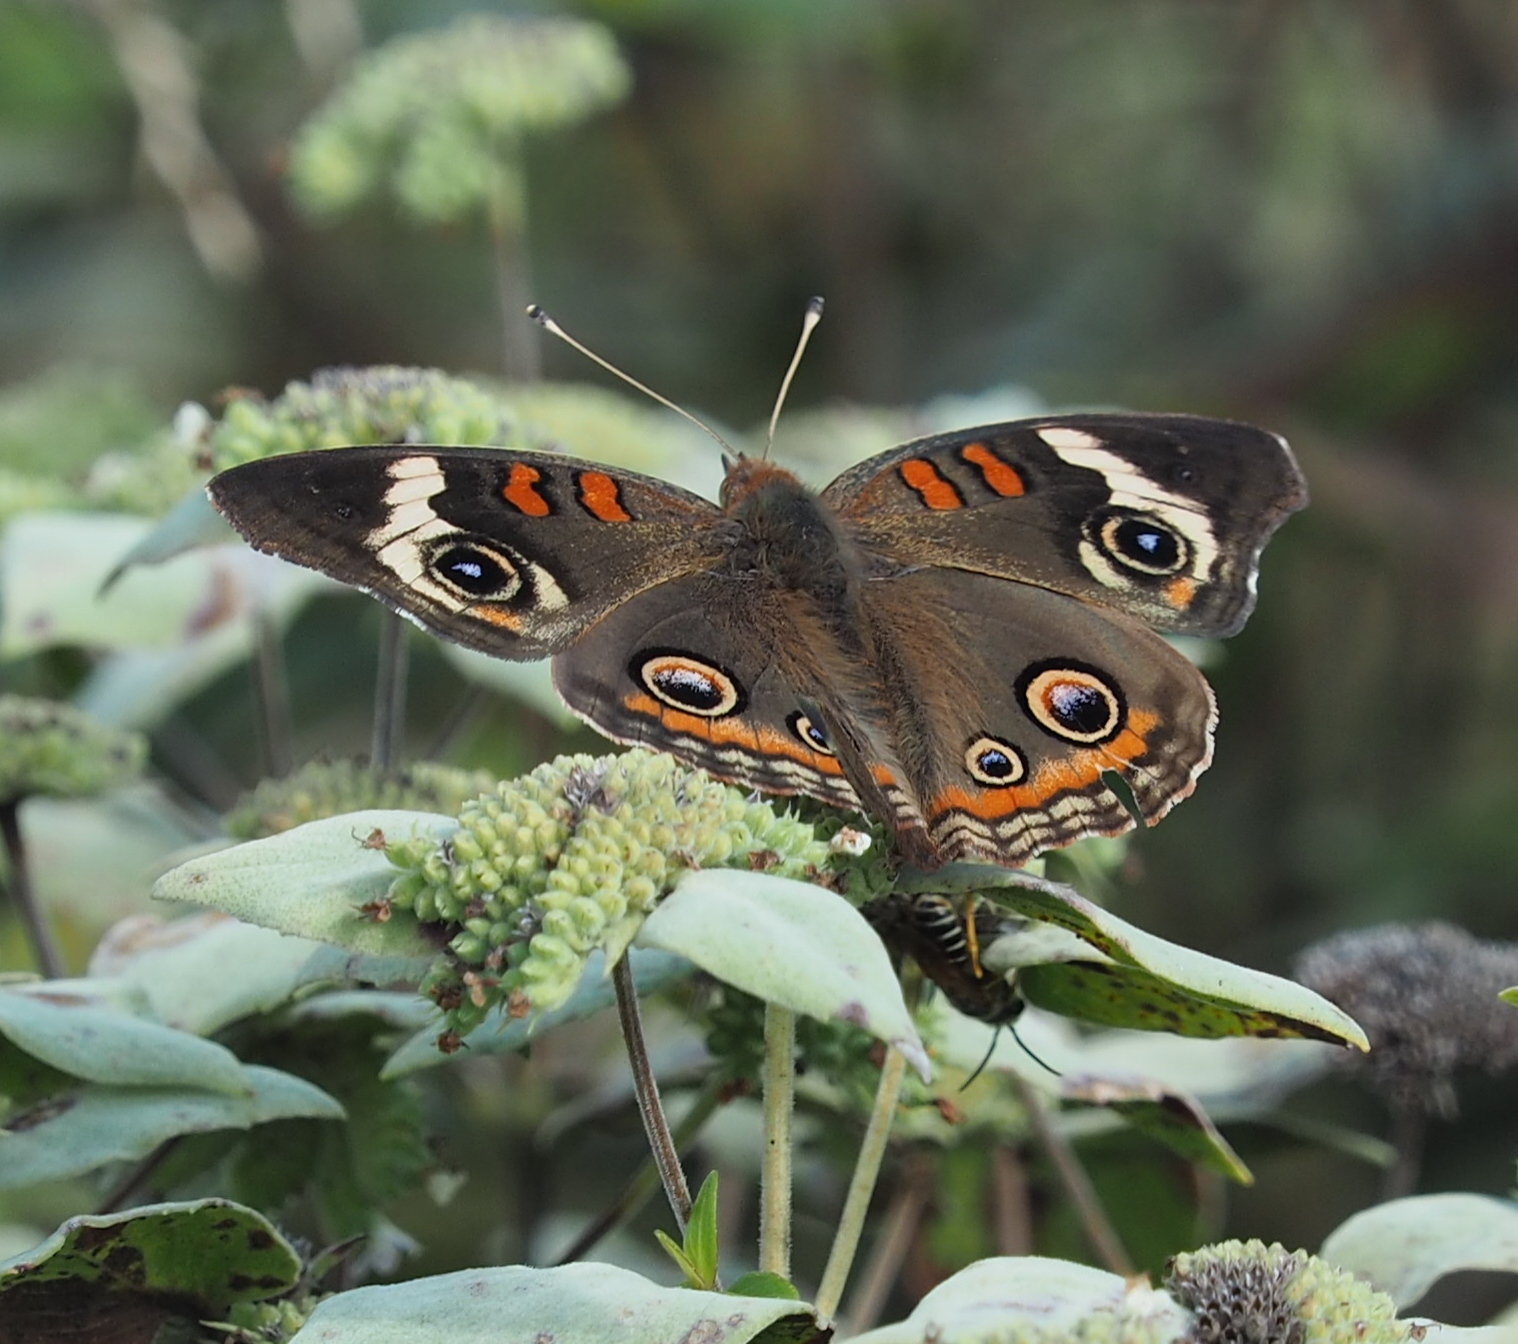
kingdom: Animalia
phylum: Arthropoda
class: Insecta
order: Lepidoptera
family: Nymphalidae
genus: Junonia
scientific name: Junonia coenia
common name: Common buckeye
